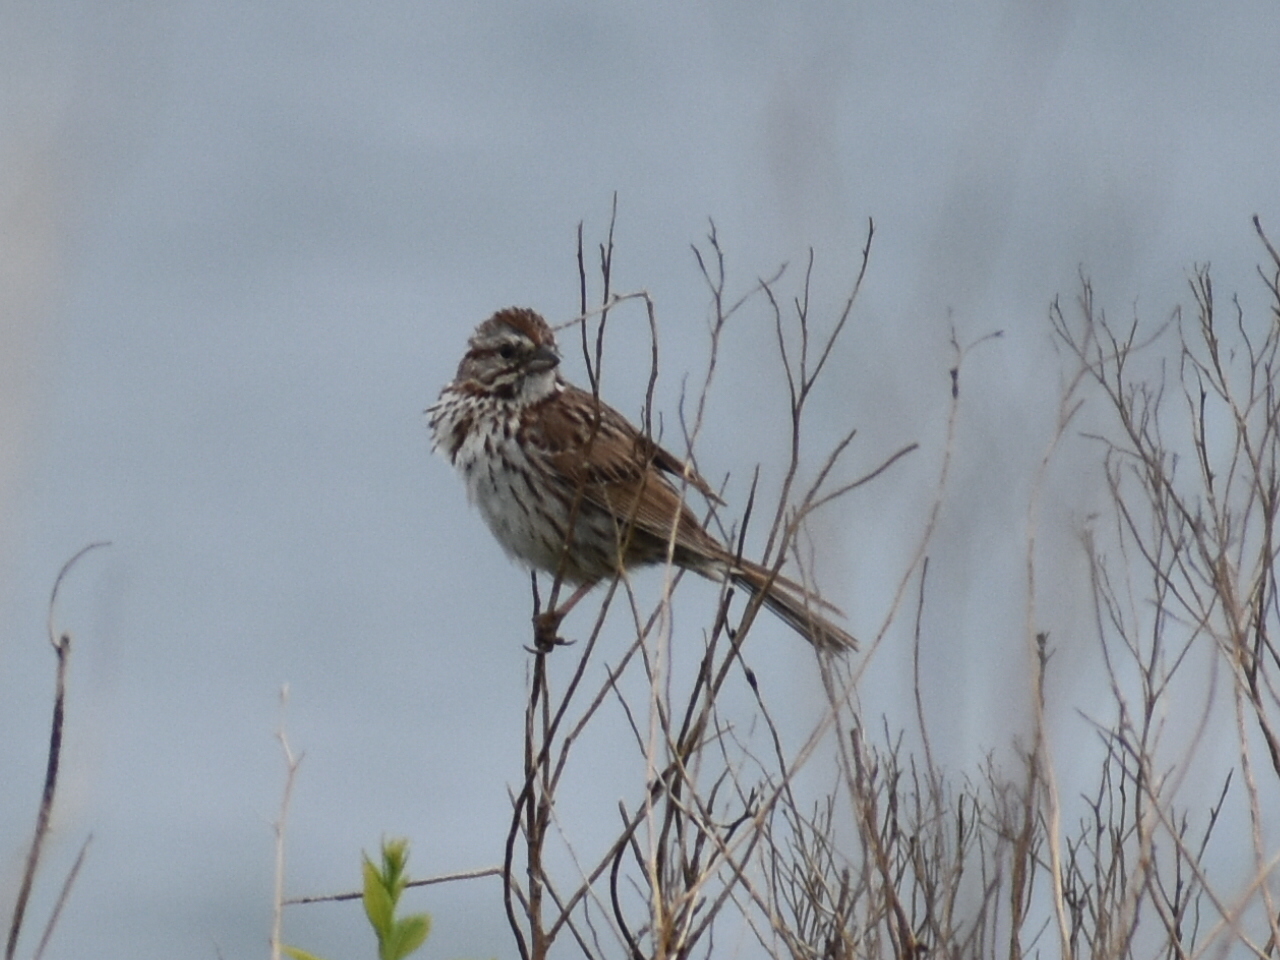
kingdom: Animalia
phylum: Chordata
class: Aves
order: Passeriformes
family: Passerellidae
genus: Melospiza
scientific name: Melospiza melodia
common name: Song sparrow
